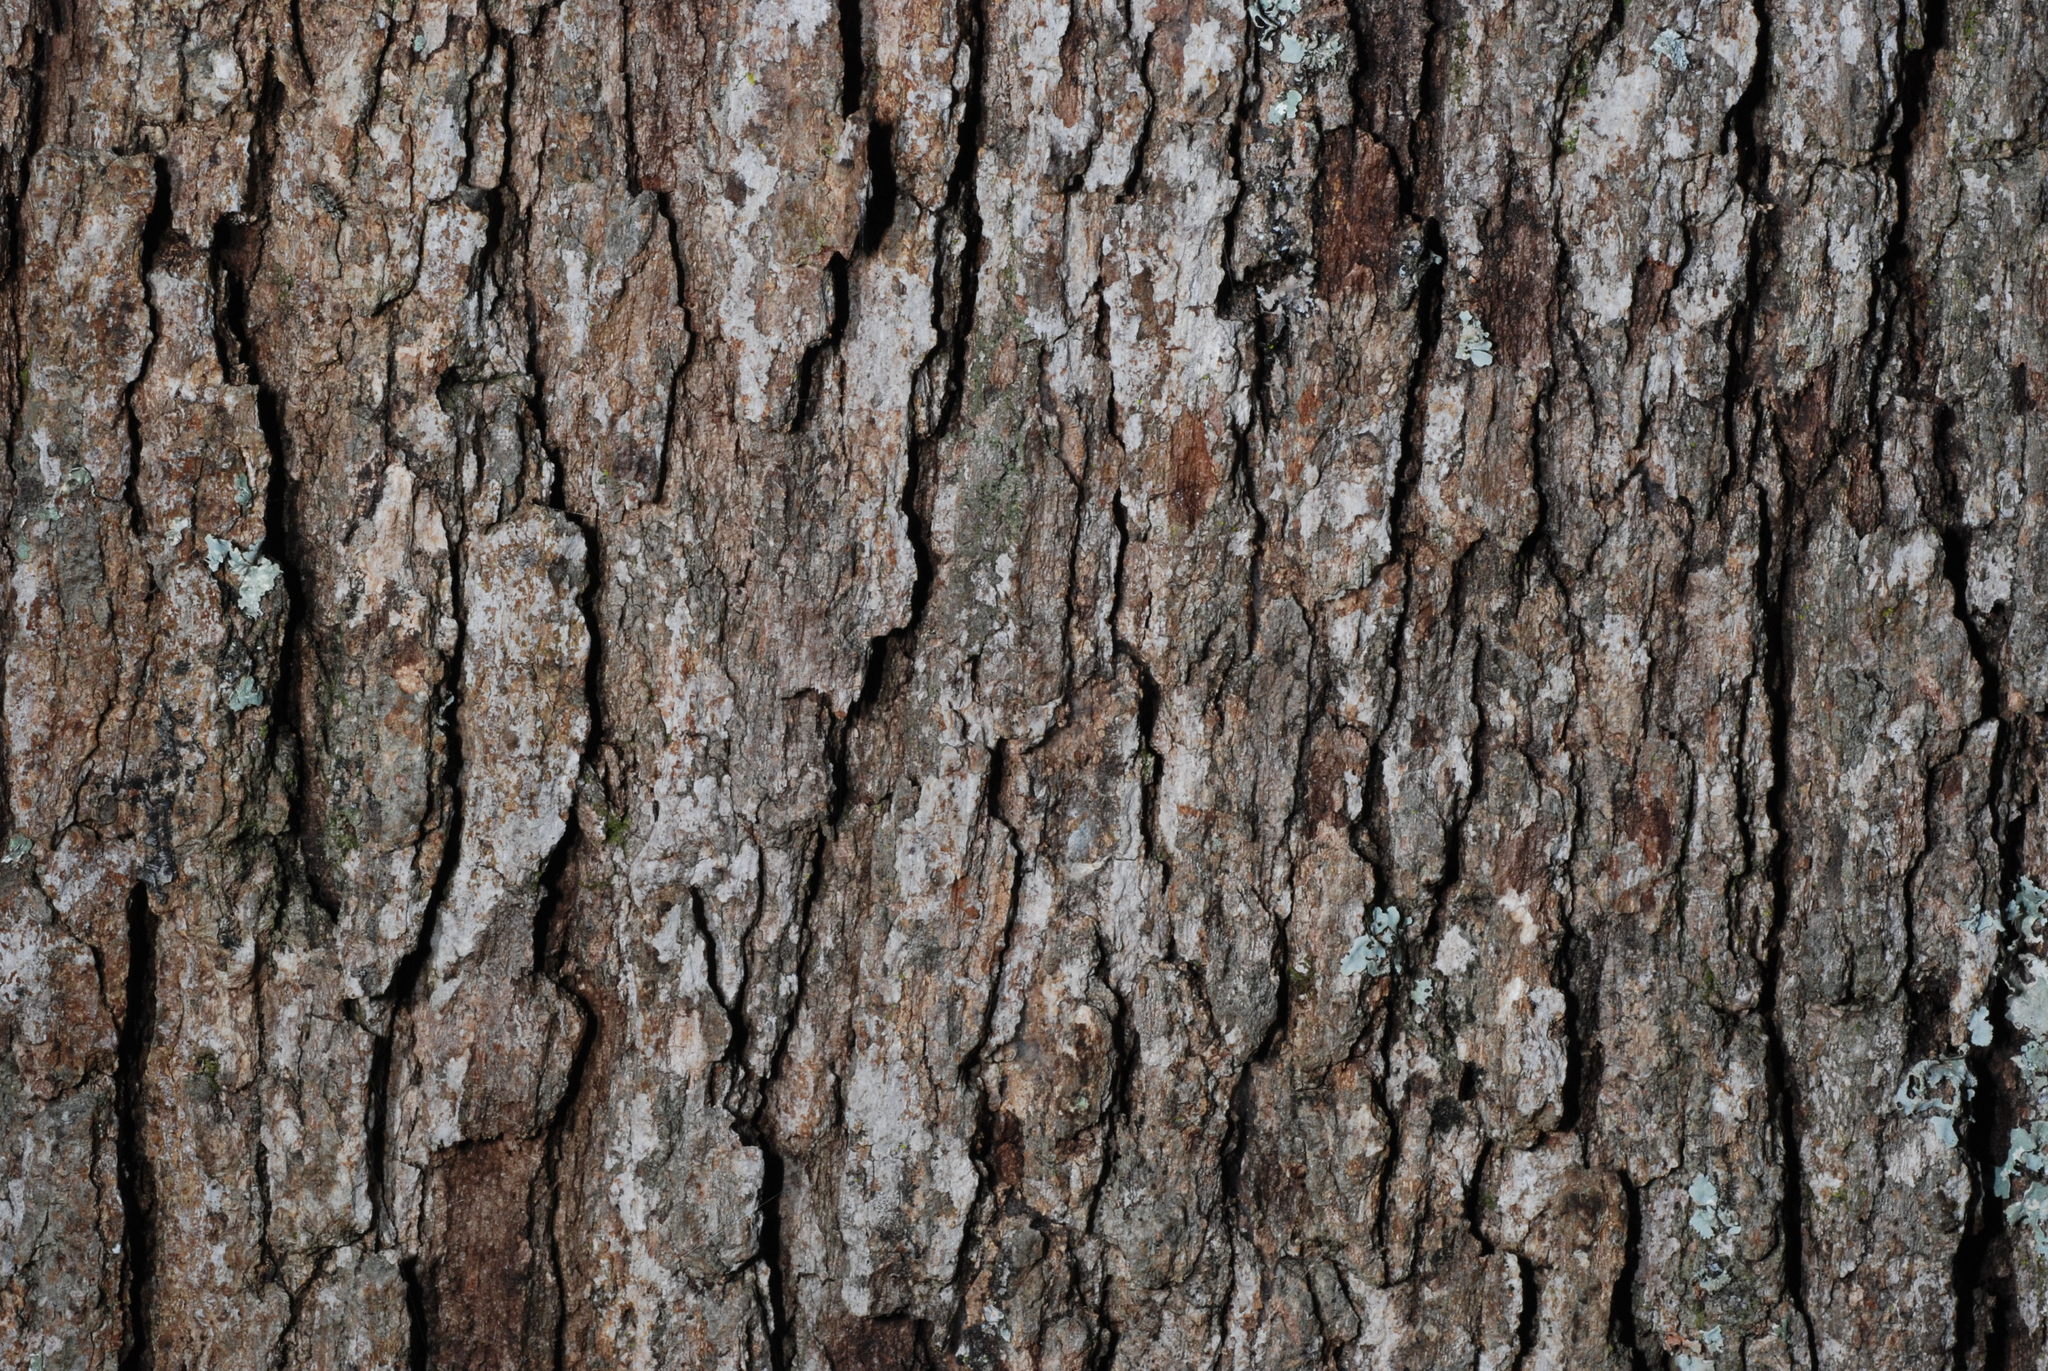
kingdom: Plantae
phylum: Tracheophyta
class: Magnoliopsida
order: Fagales
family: Fagaceae
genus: Quercus
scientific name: Quercus margaretiae
